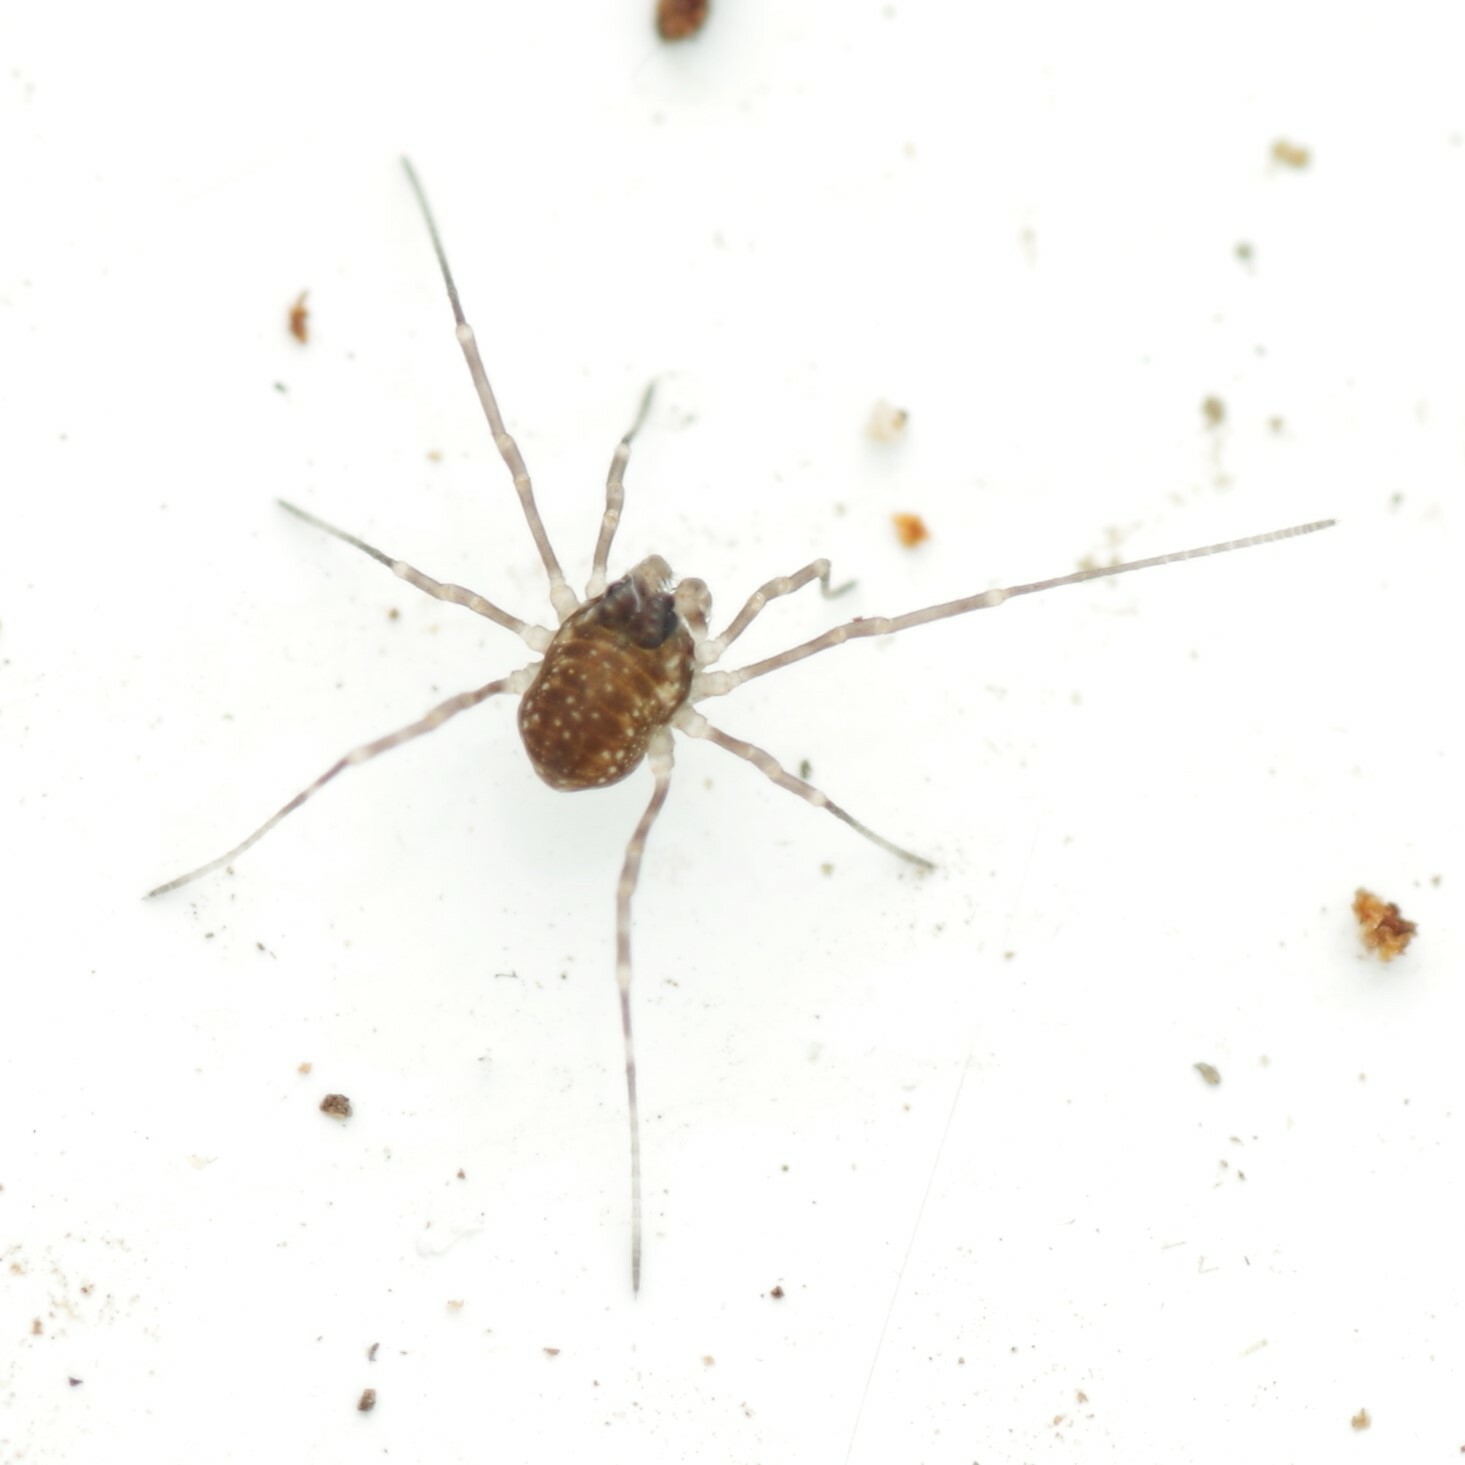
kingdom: Animalia
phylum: Arthropoda
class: Arachnida
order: Opiliones
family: Phalangiidae
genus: Rilaena
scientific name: Rilaena triangularis
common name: Spring harvestman
